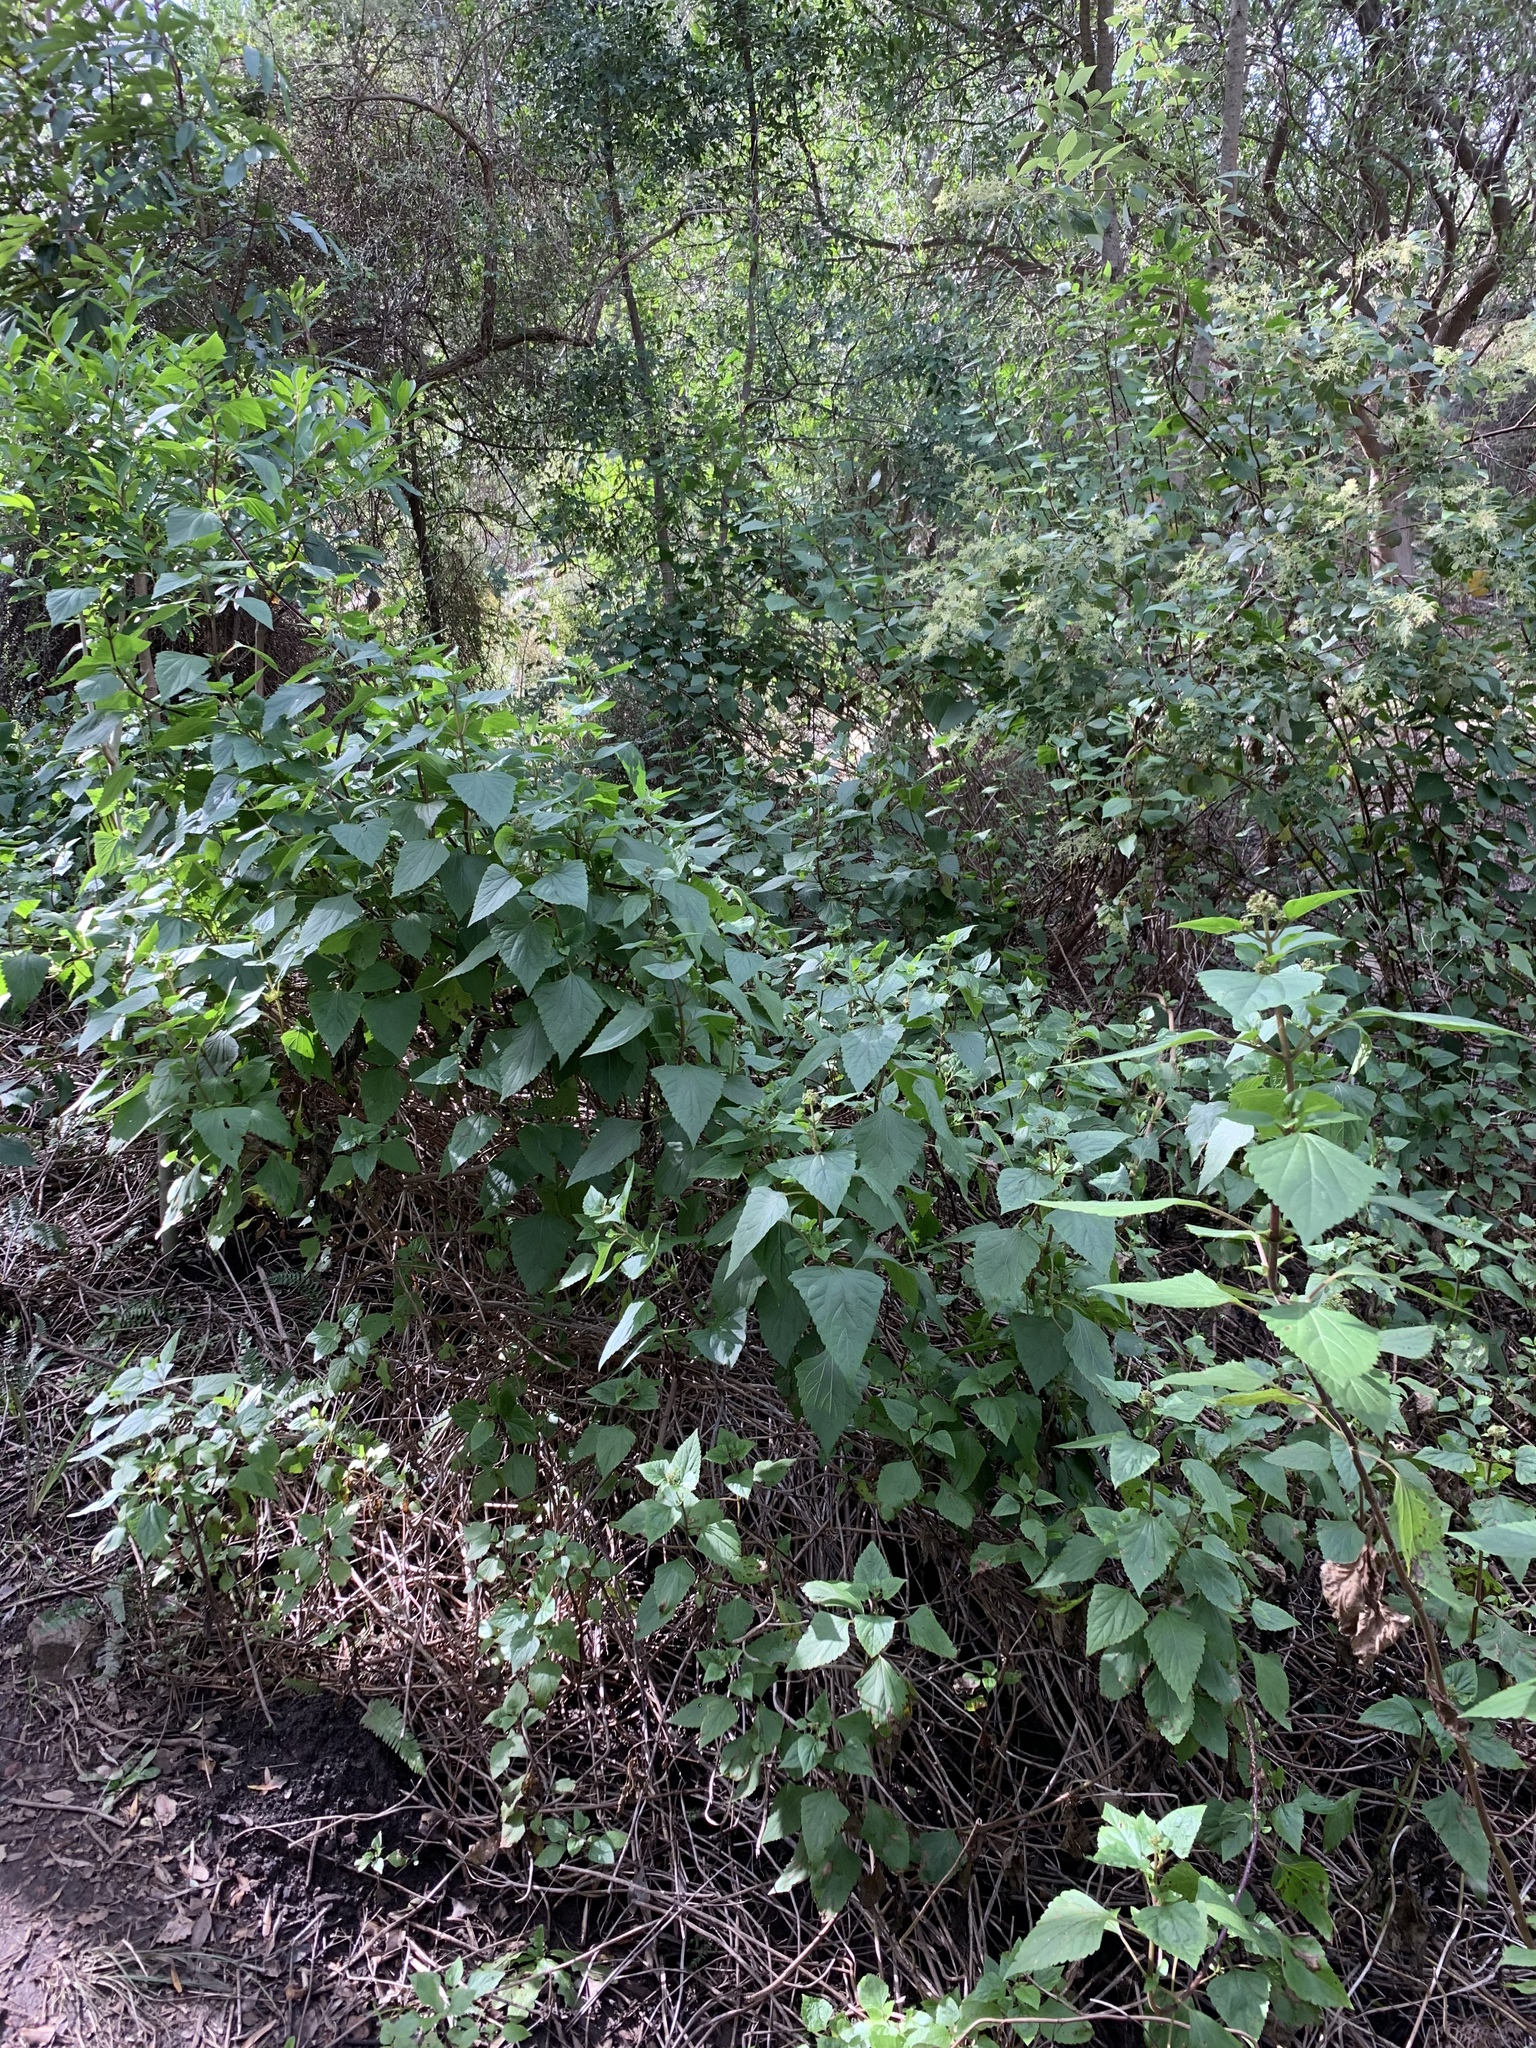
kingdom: Plantae
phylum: Tracheophyta
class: Magnoliopsida
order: Asterales
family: Asteraceae
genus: Ageratina
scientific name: Ageratina adenophora
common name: Sticky snakeroot
